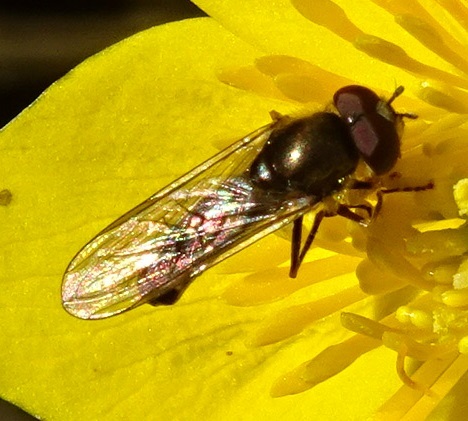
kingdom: Animalia
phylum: Arthropoda
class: Insecta
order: Diptera
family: Syrphidae
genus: Platycheirus
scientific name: Platycheirus
